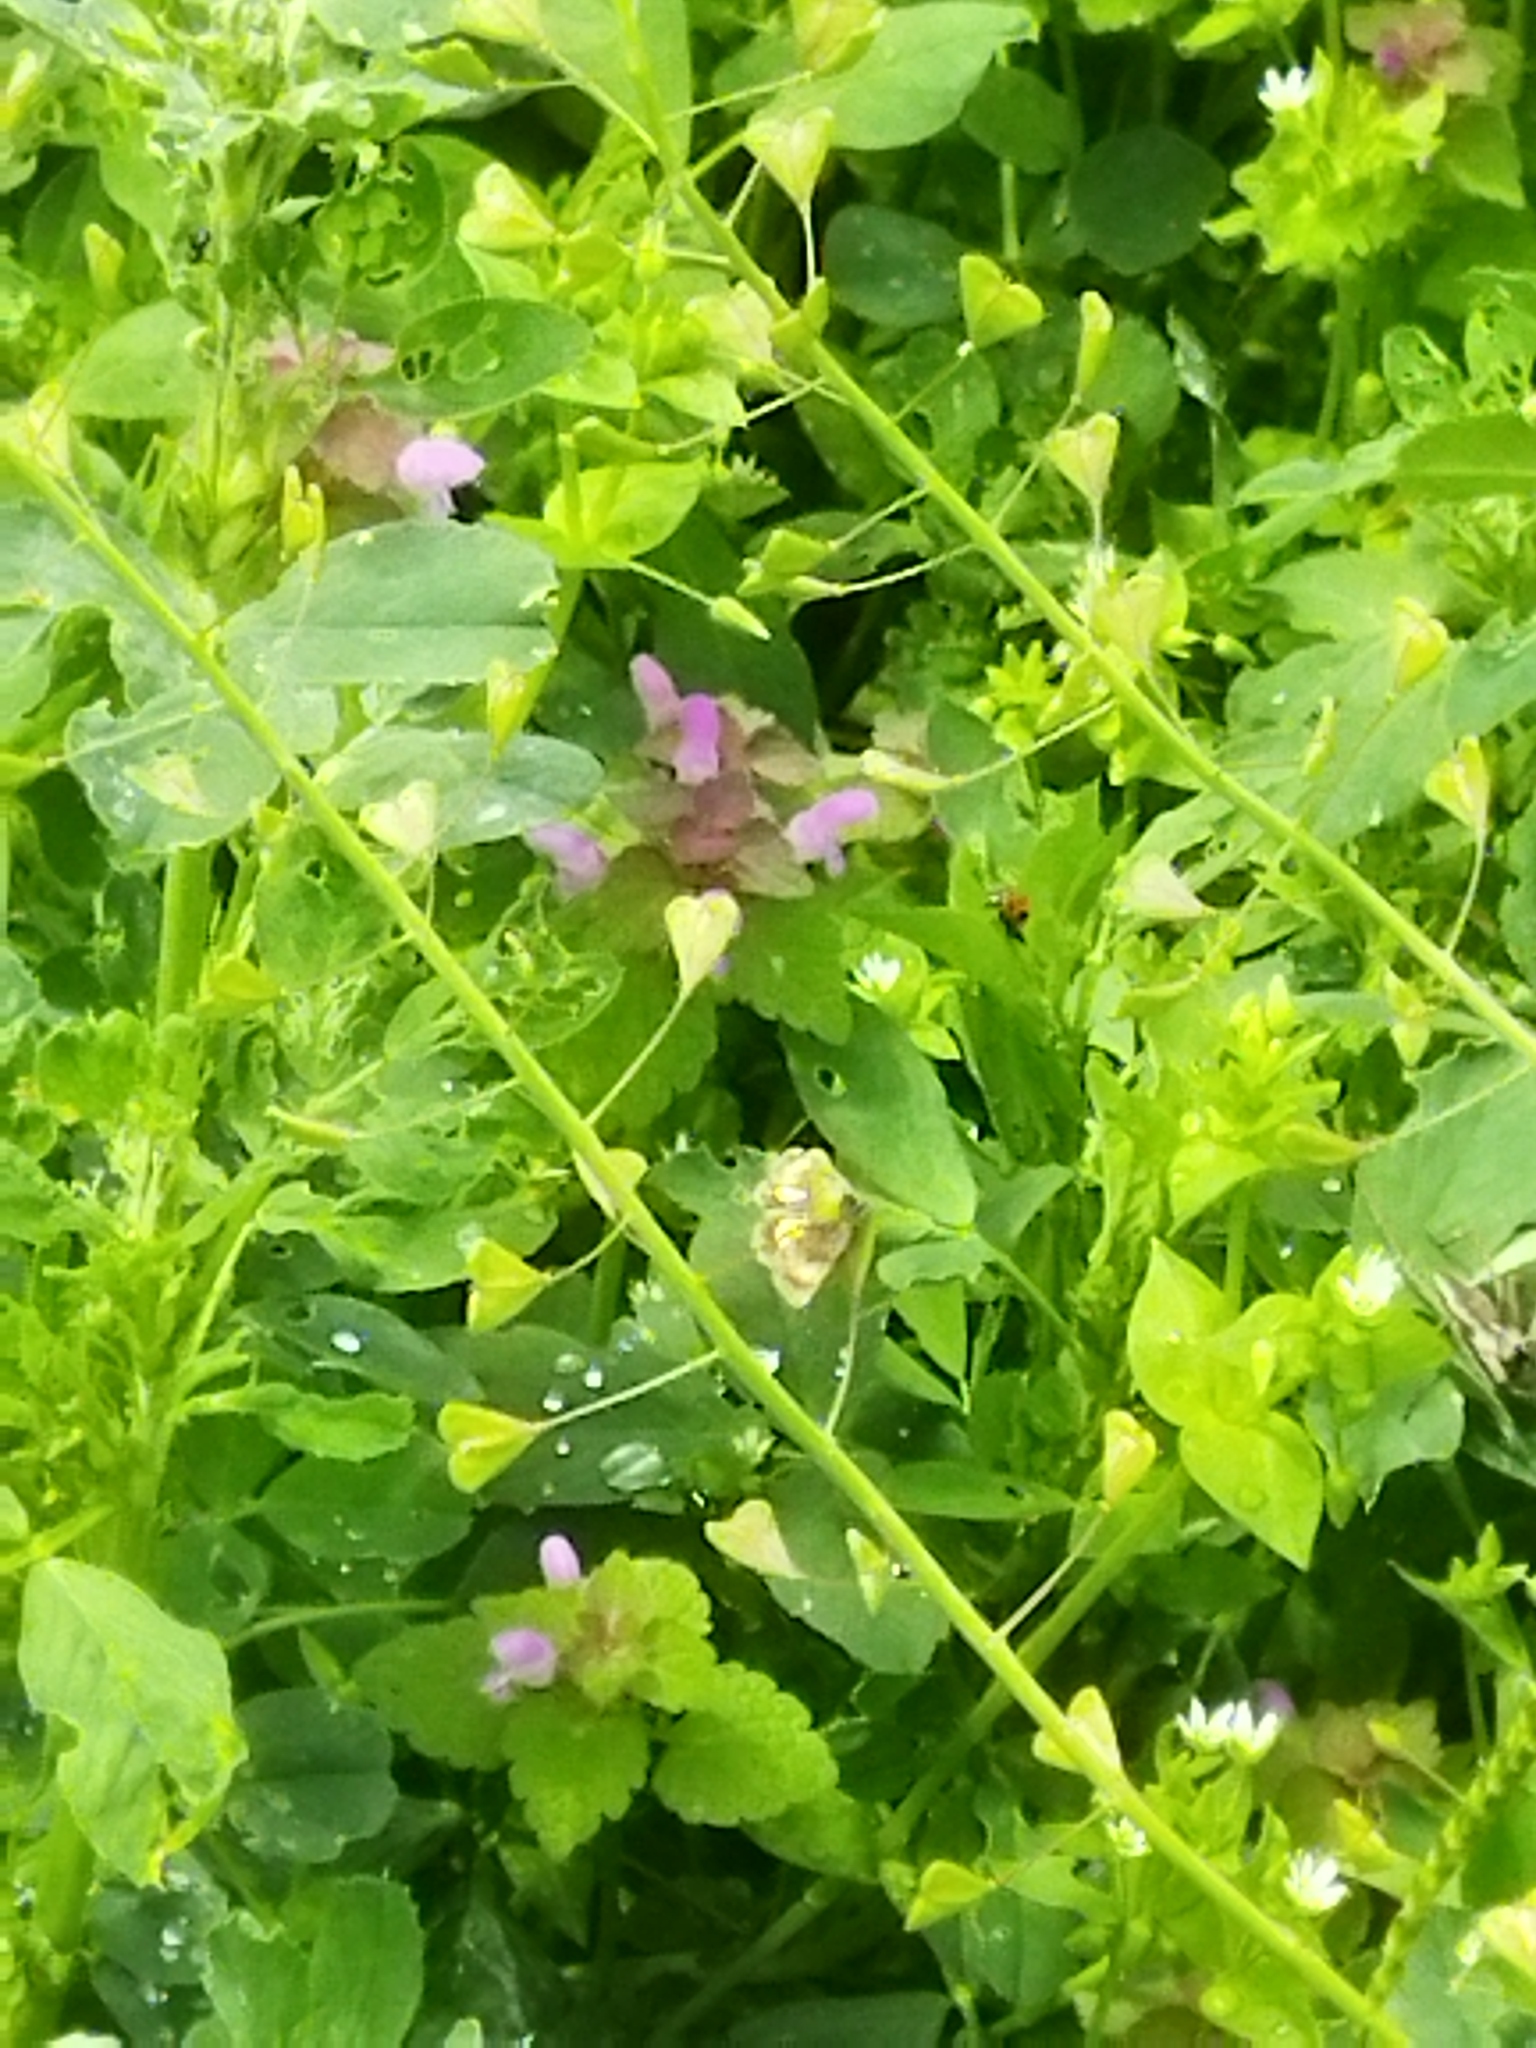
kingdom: Animalia
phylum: Arthropoda
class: Insecta
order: Lepidoptera
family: Noctuidae
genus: Panemeria
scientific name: Panemeria tenebrata
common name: Small yellow underwing
